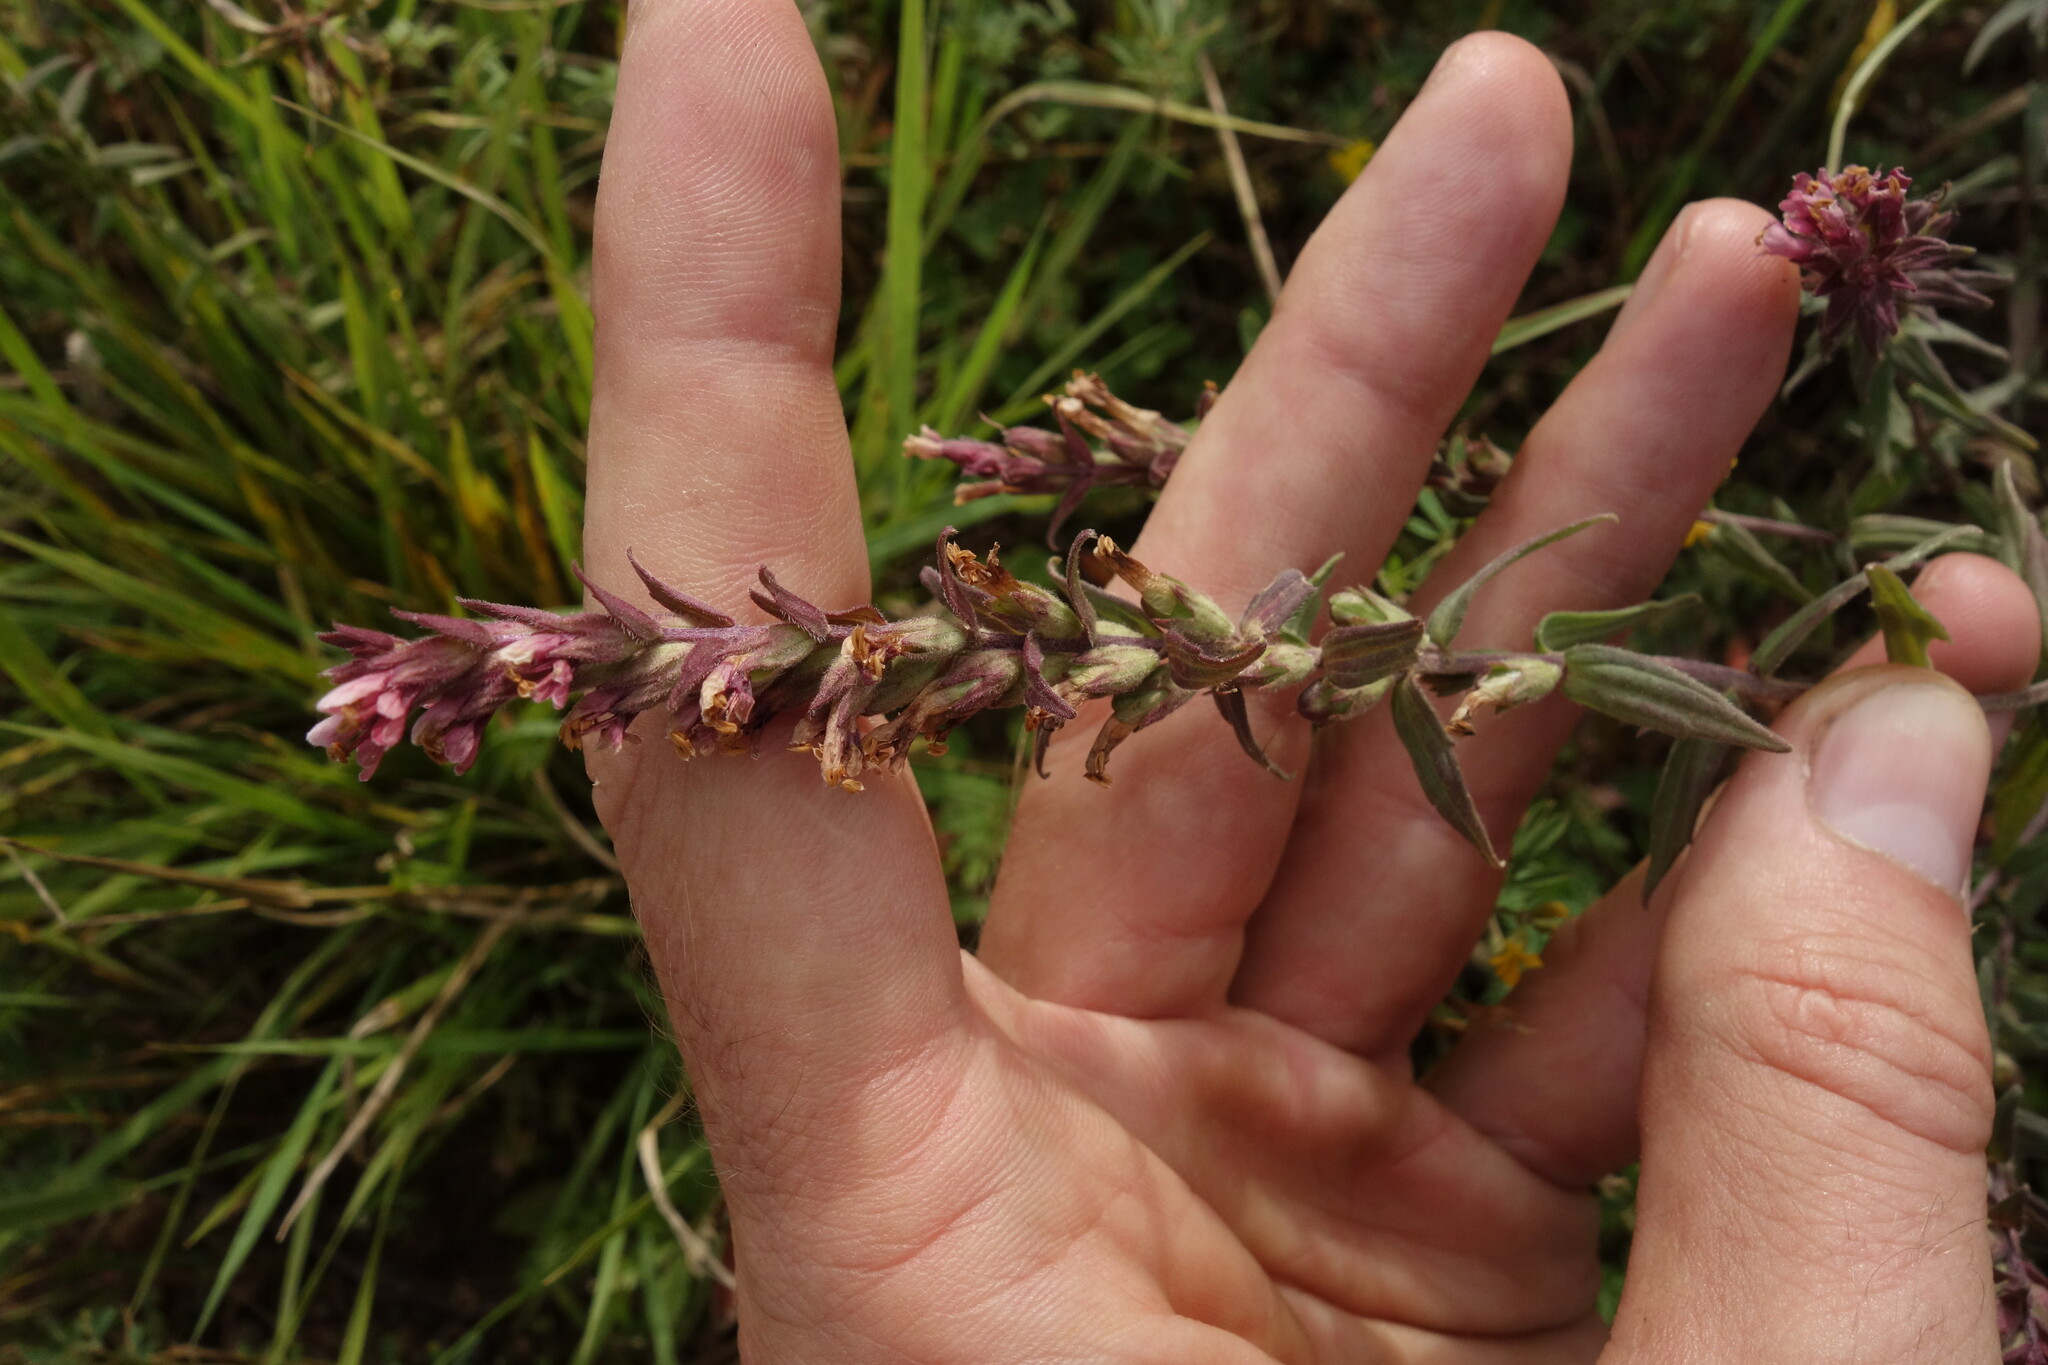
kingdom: Plantae
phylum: Tracheophyta
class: Magnoliopsida
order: Lamiales
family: Orobanchaceae
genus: Odontites
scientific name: Odontites vulgaris
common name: Broomrape
